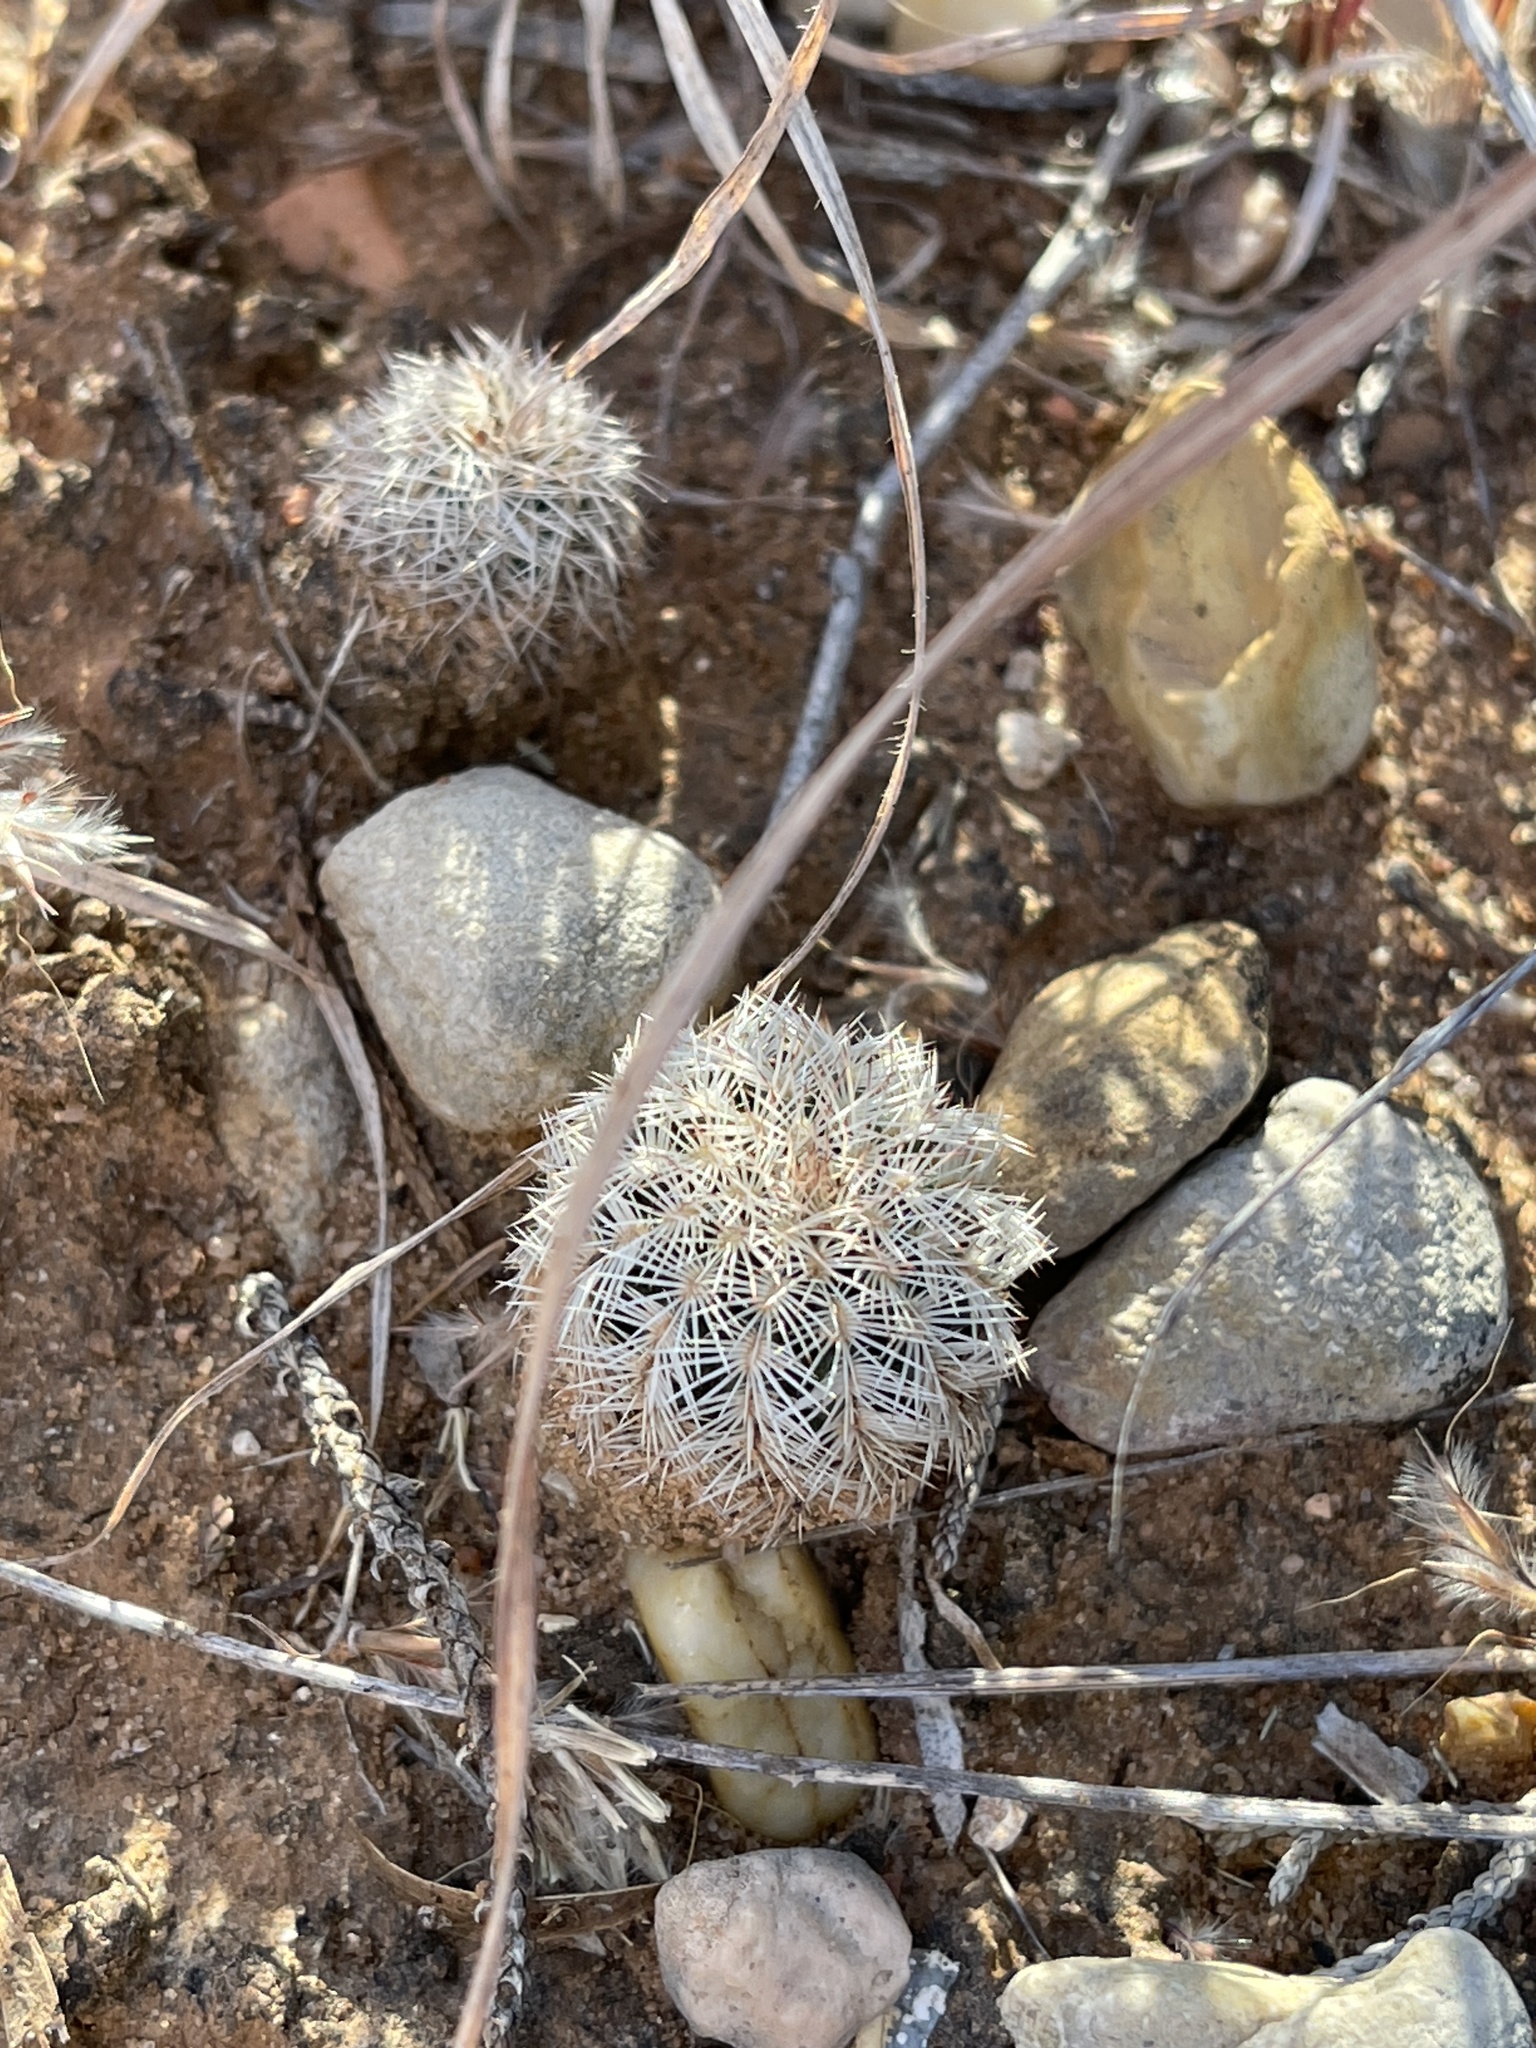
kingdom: Plantae
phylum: Tracheophyta
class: Magnoliopsida
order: Caryophyllales
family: Cactaceae
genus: Echinocereus
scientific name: Echinocereus reichenbachii
